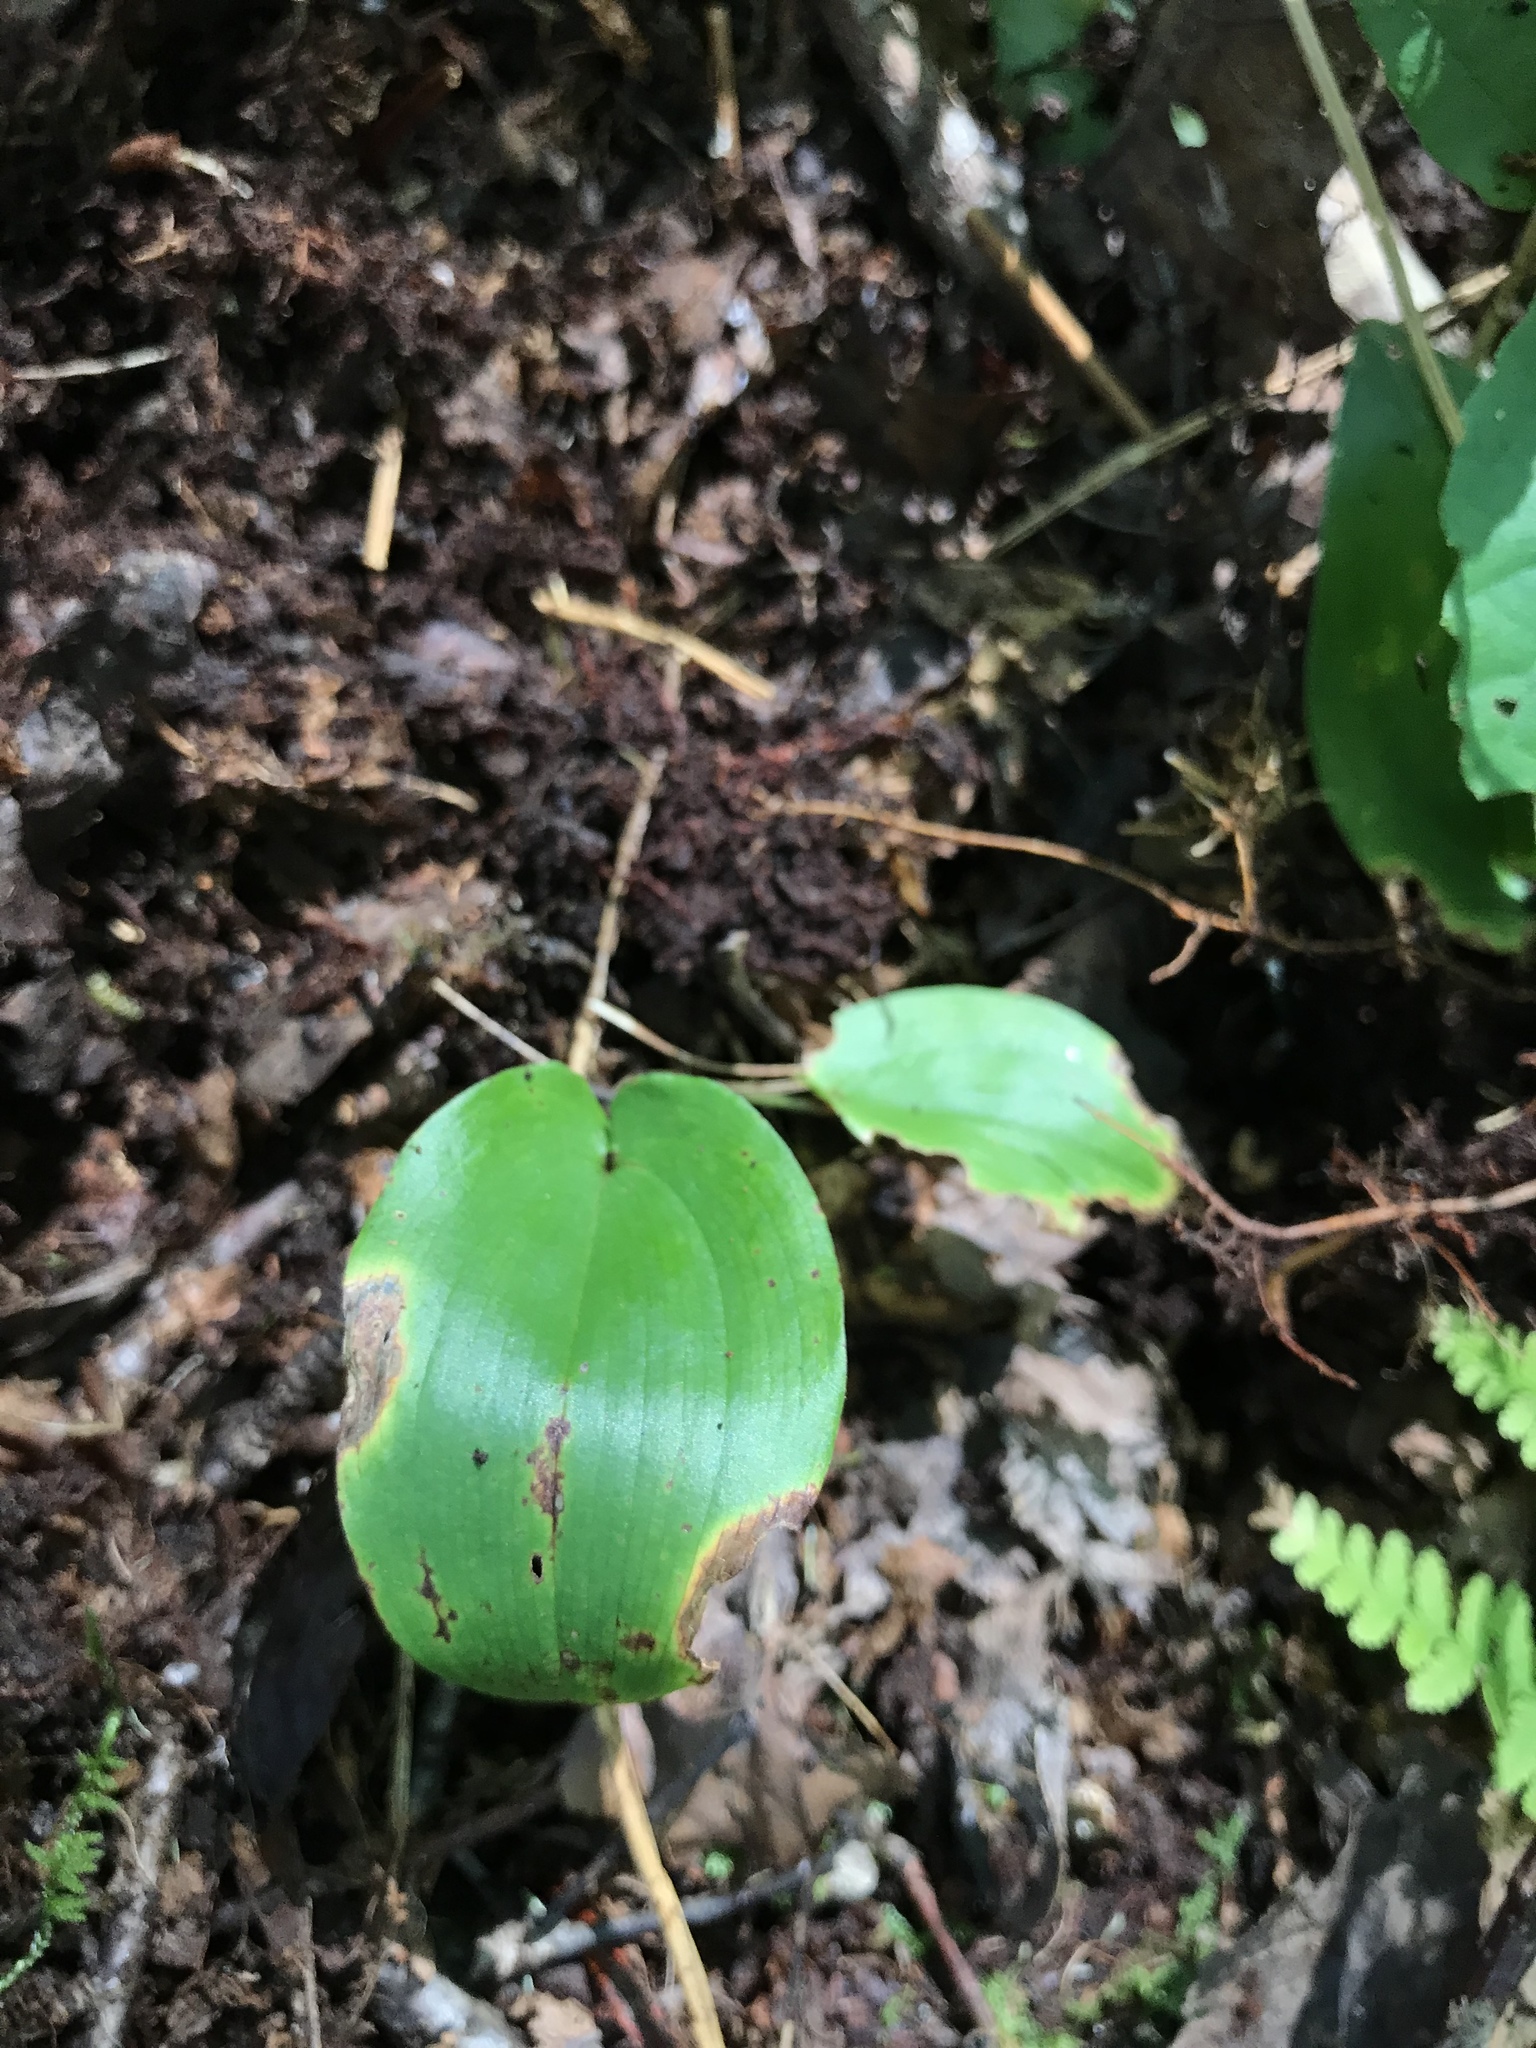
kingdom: Plantae
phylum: Tracheophyta
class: Liliopsida
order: Asparagales
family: Asparagaceae
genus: Maianthemum
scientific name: Maianthemum canadense
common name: False lily-of-the-valley
